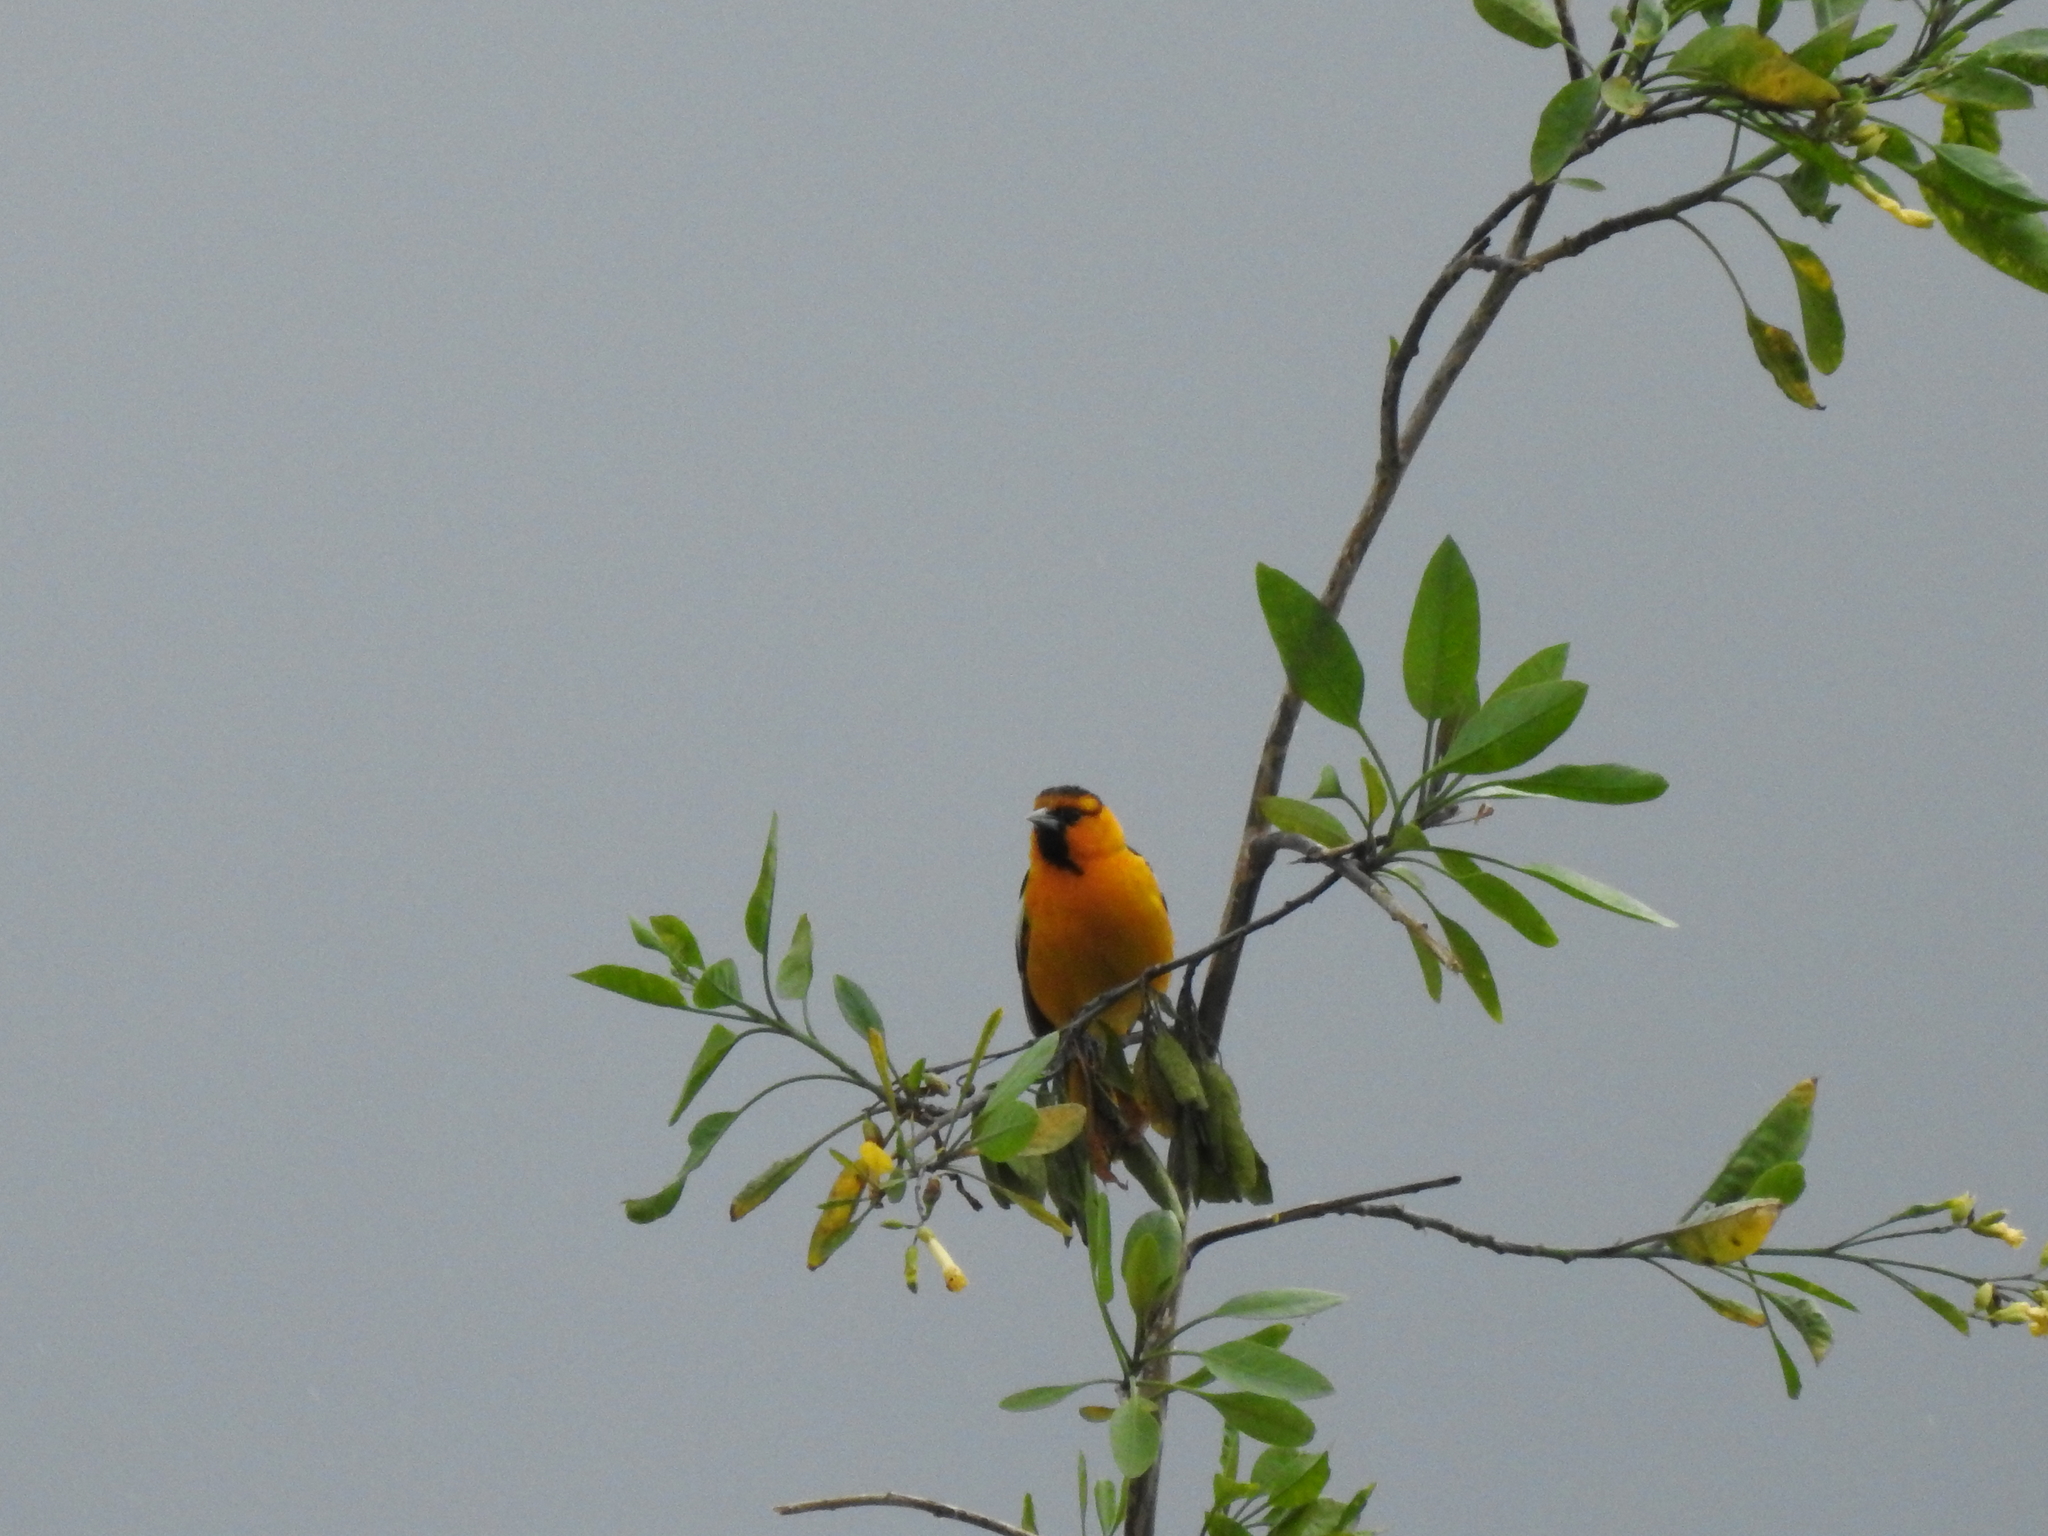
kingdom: Animalia
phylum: Chordata
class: Aves
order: Passeriformes
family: Icteridae
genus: Icterus
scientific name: Icterus bullockii
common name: Bullock's oriole
